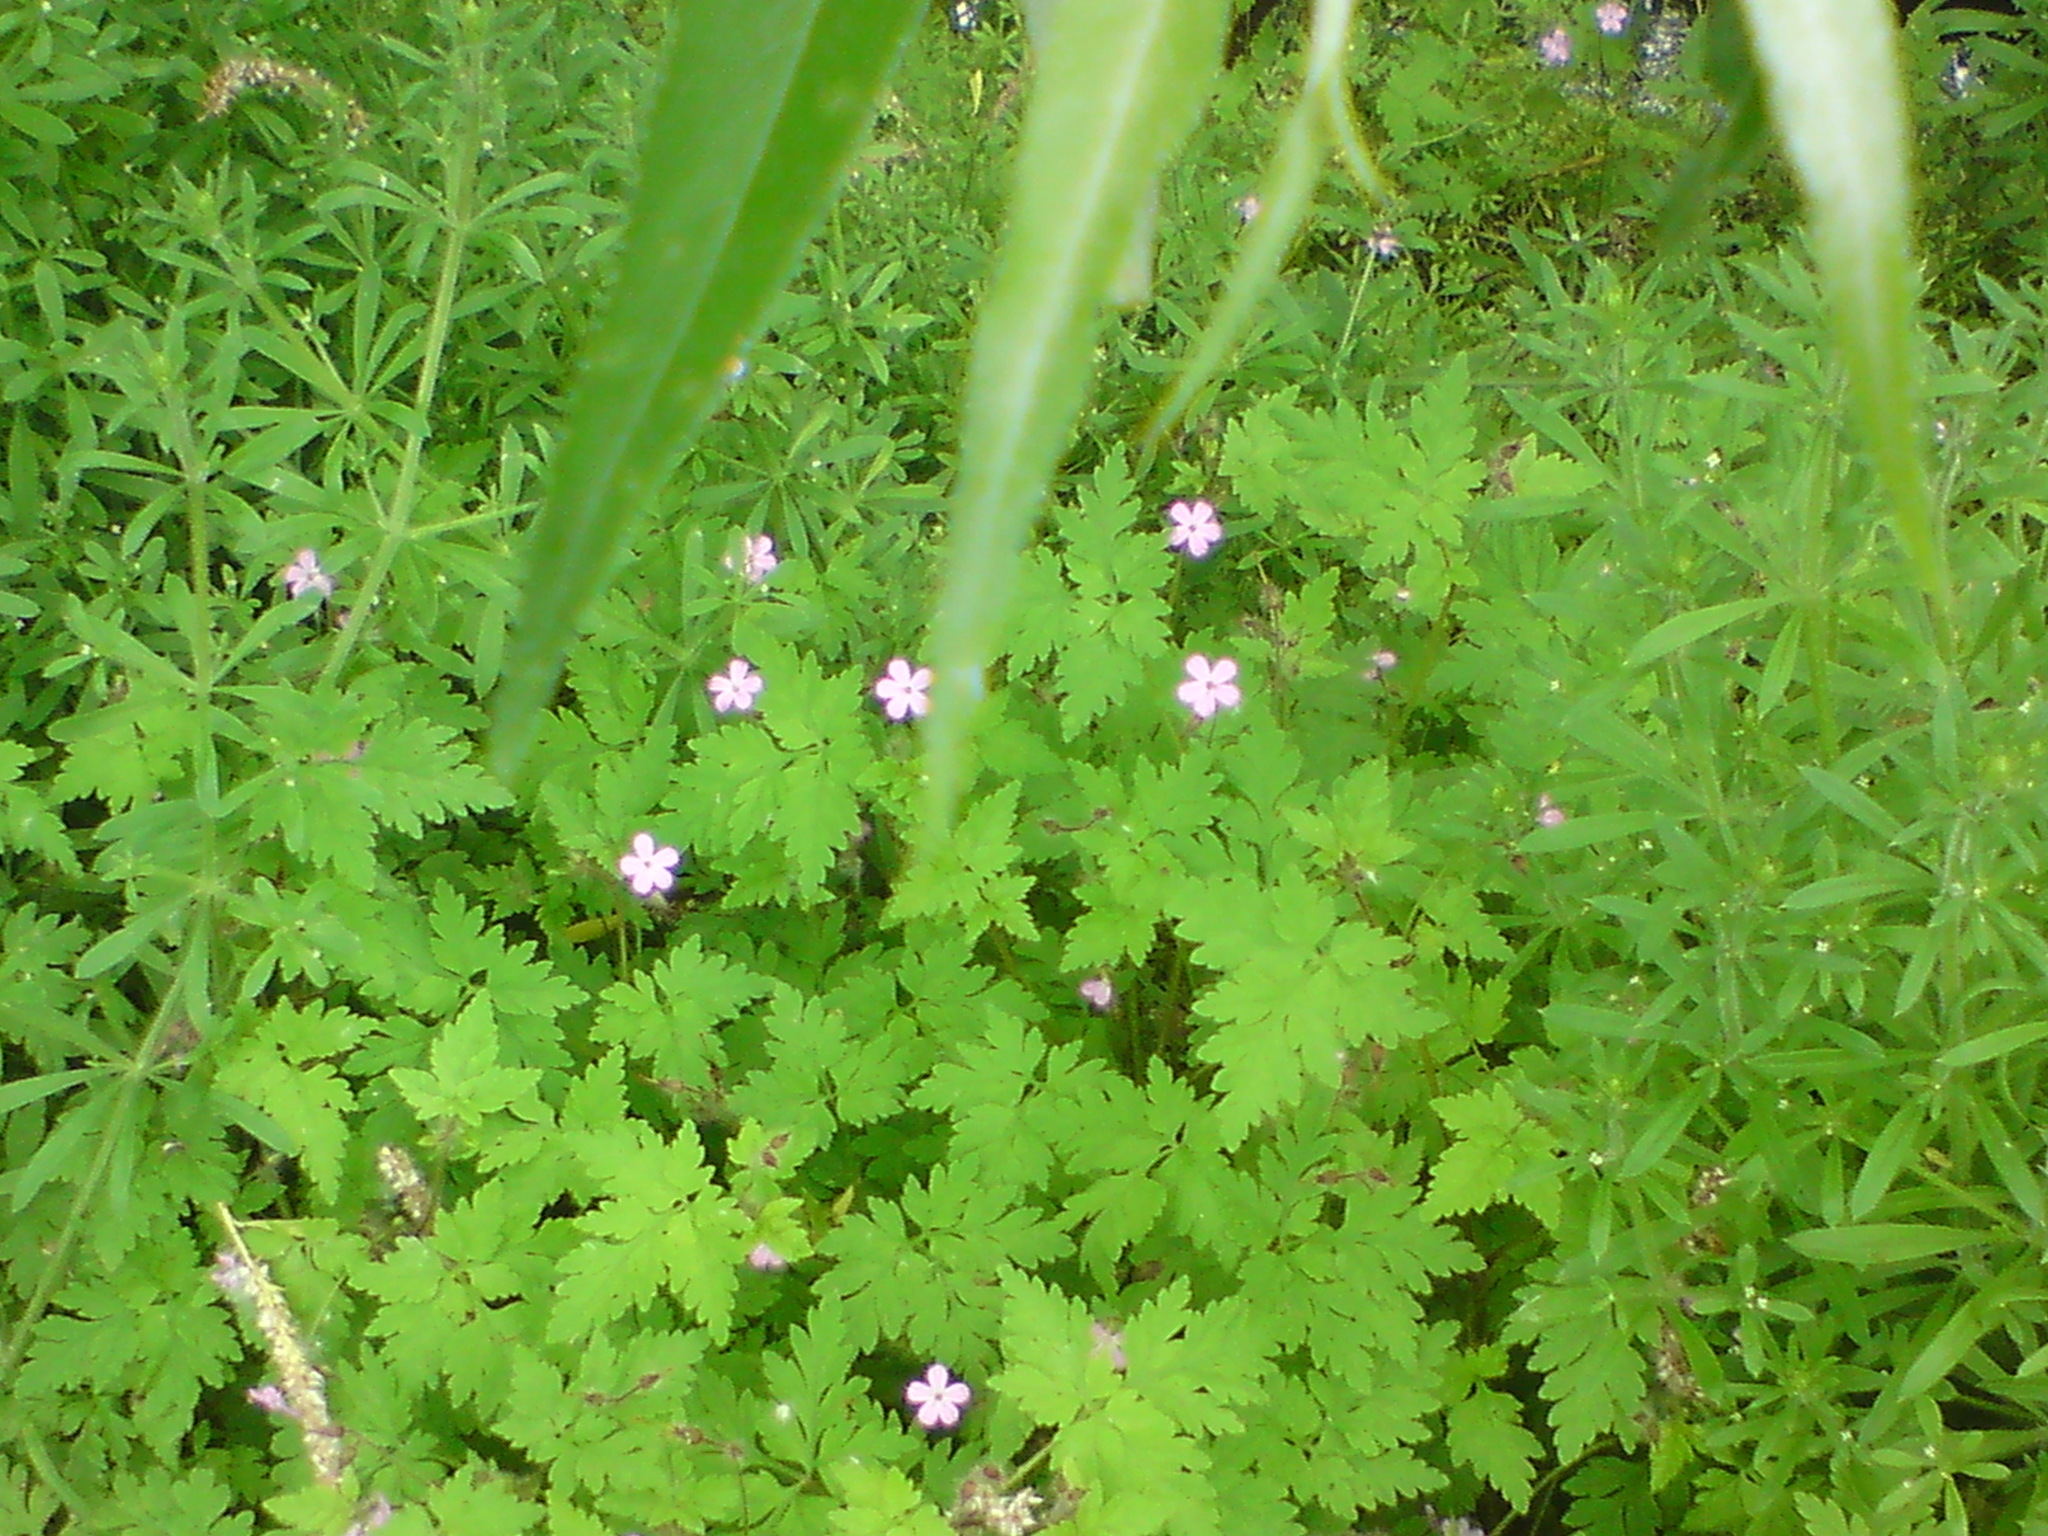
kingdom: Plantae
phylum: Tracheophyta
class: Magnoliopsida
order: Geraniales
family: Geraniaceae
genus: Geranium
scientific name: Geranium robertianum
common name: Herb-robert
